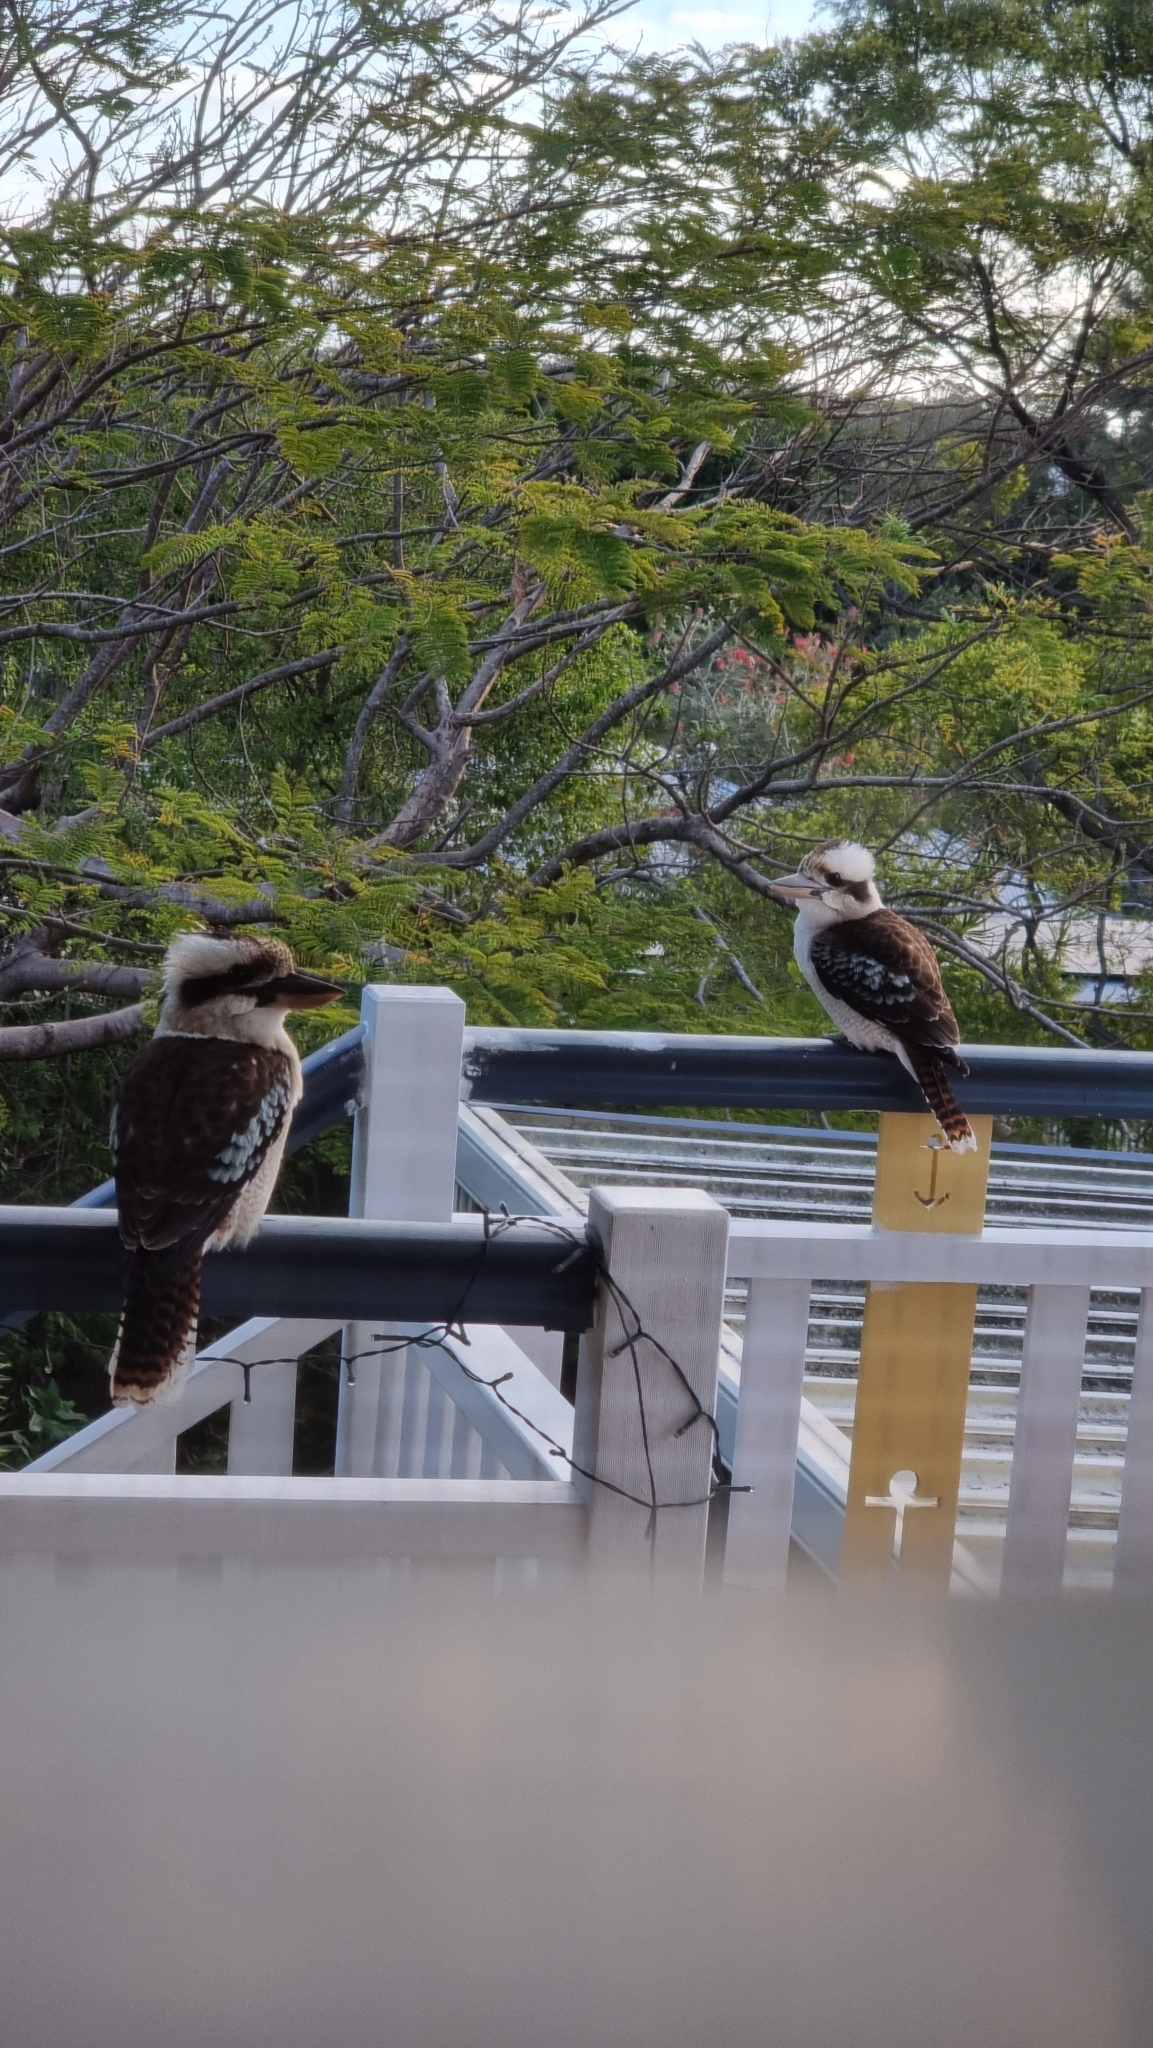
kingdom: Animalia
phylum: Chordata
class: Aves
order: Coraciiformes
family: Alcedinidae
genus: Dacelo
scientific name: Dacelo novaeguineae
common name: Laughing kookaburra
